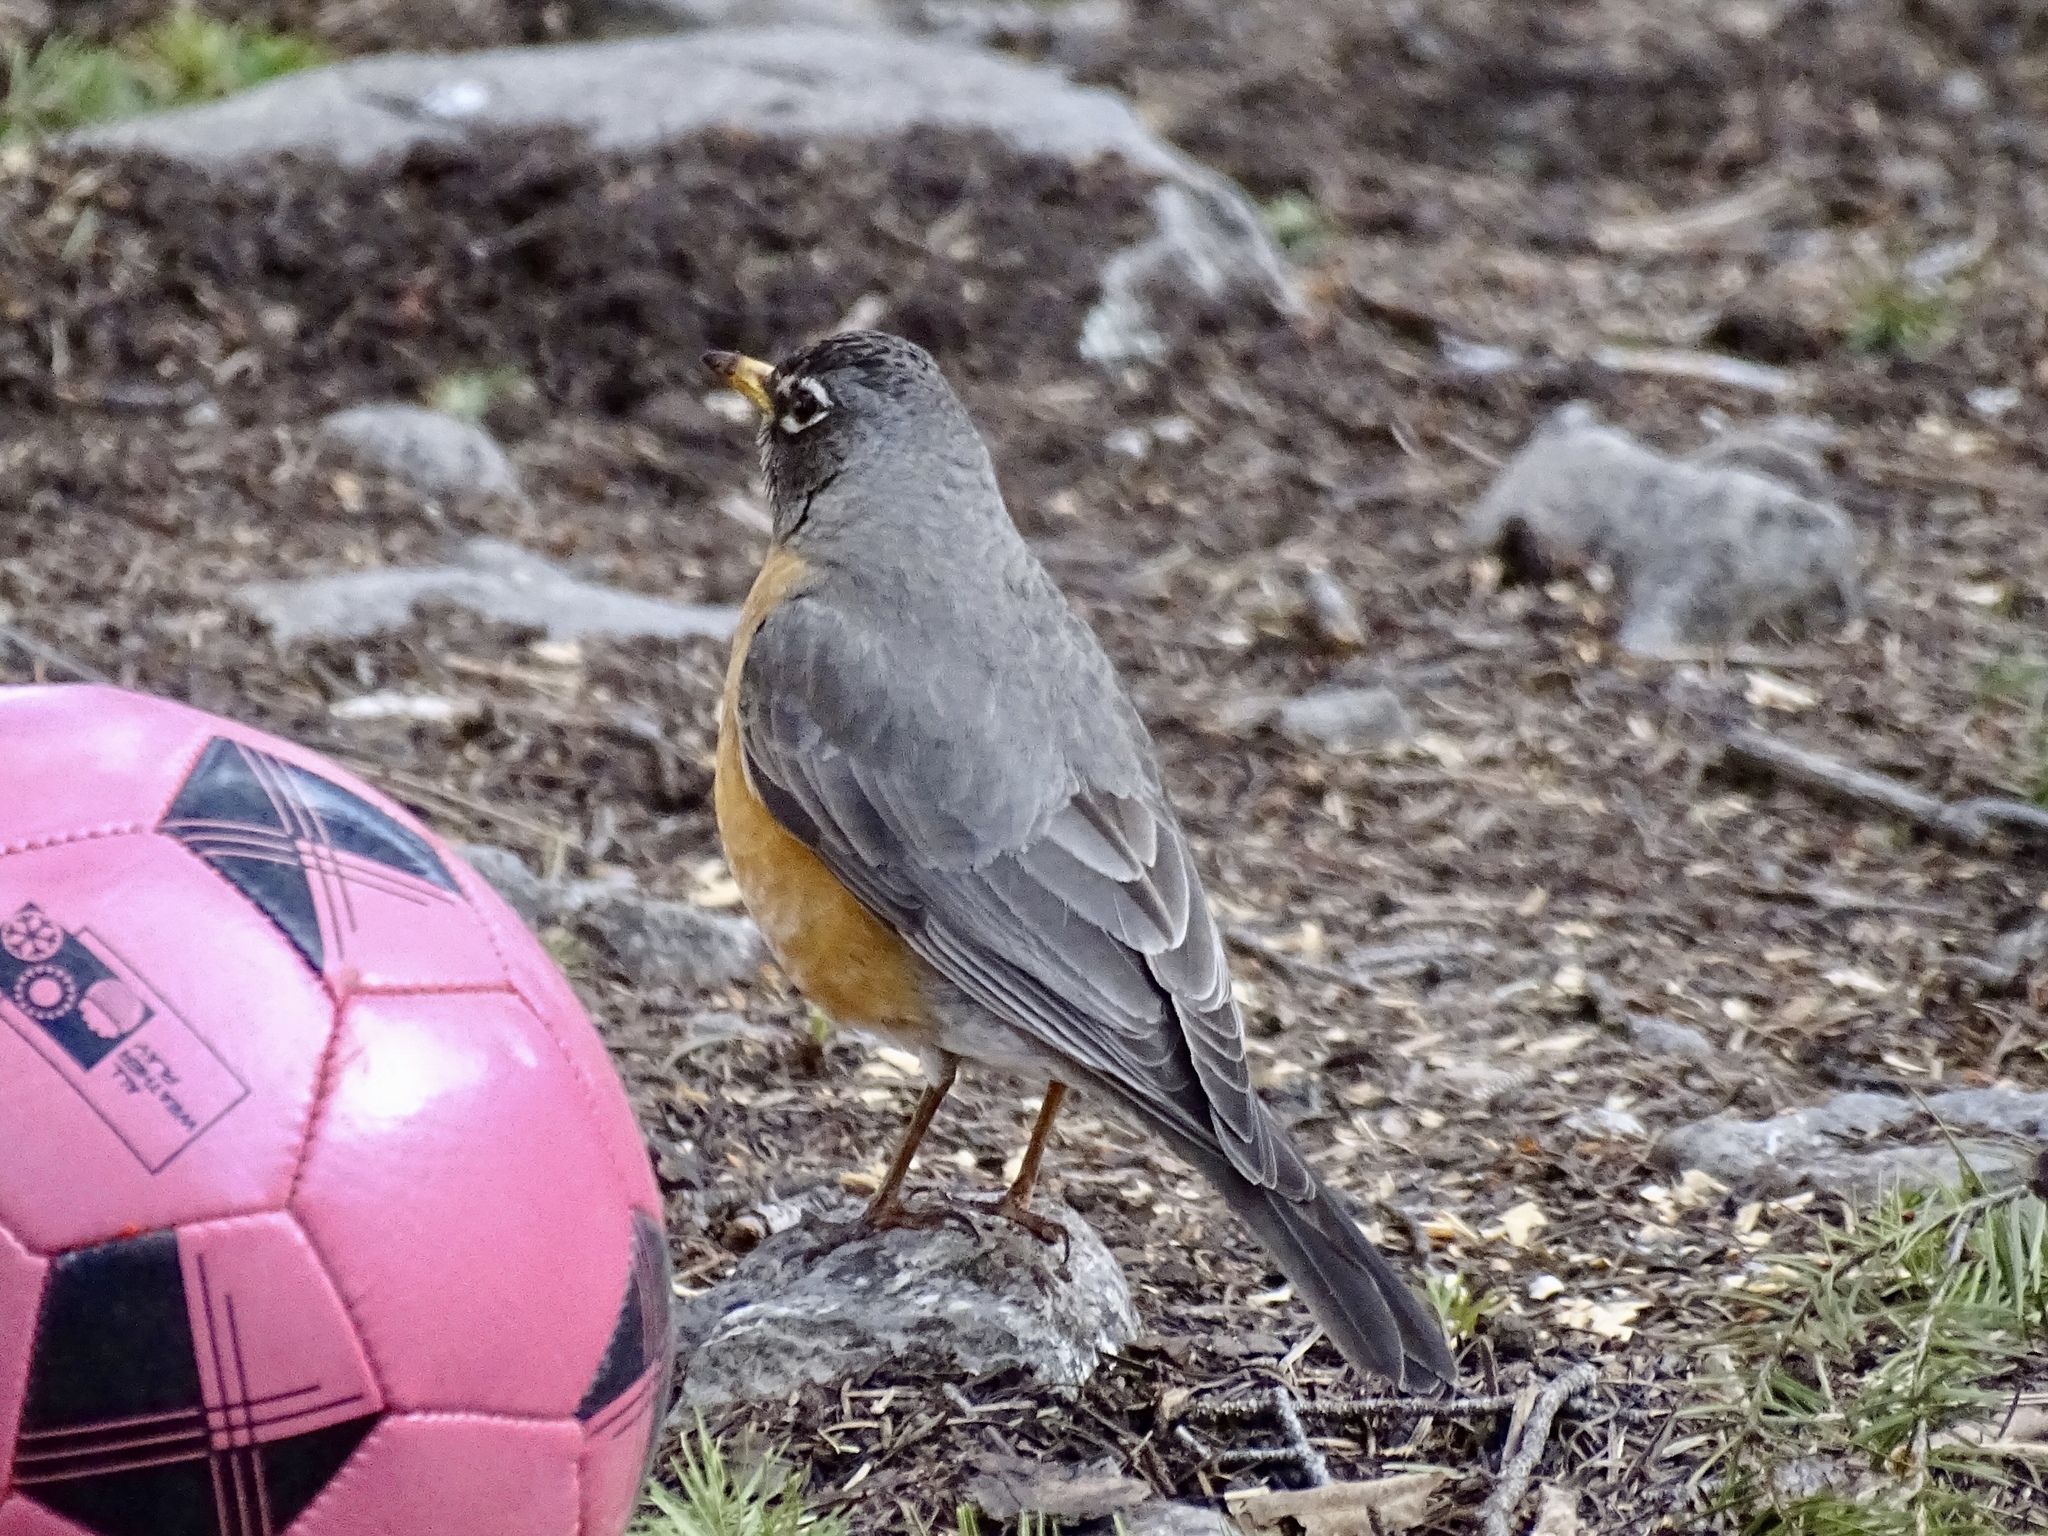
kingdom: Animalia
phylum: Chordata
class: Aves
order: Passeriformes
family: Turdidae
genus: Turdus
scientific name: Turdus migratorius
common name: American robin
